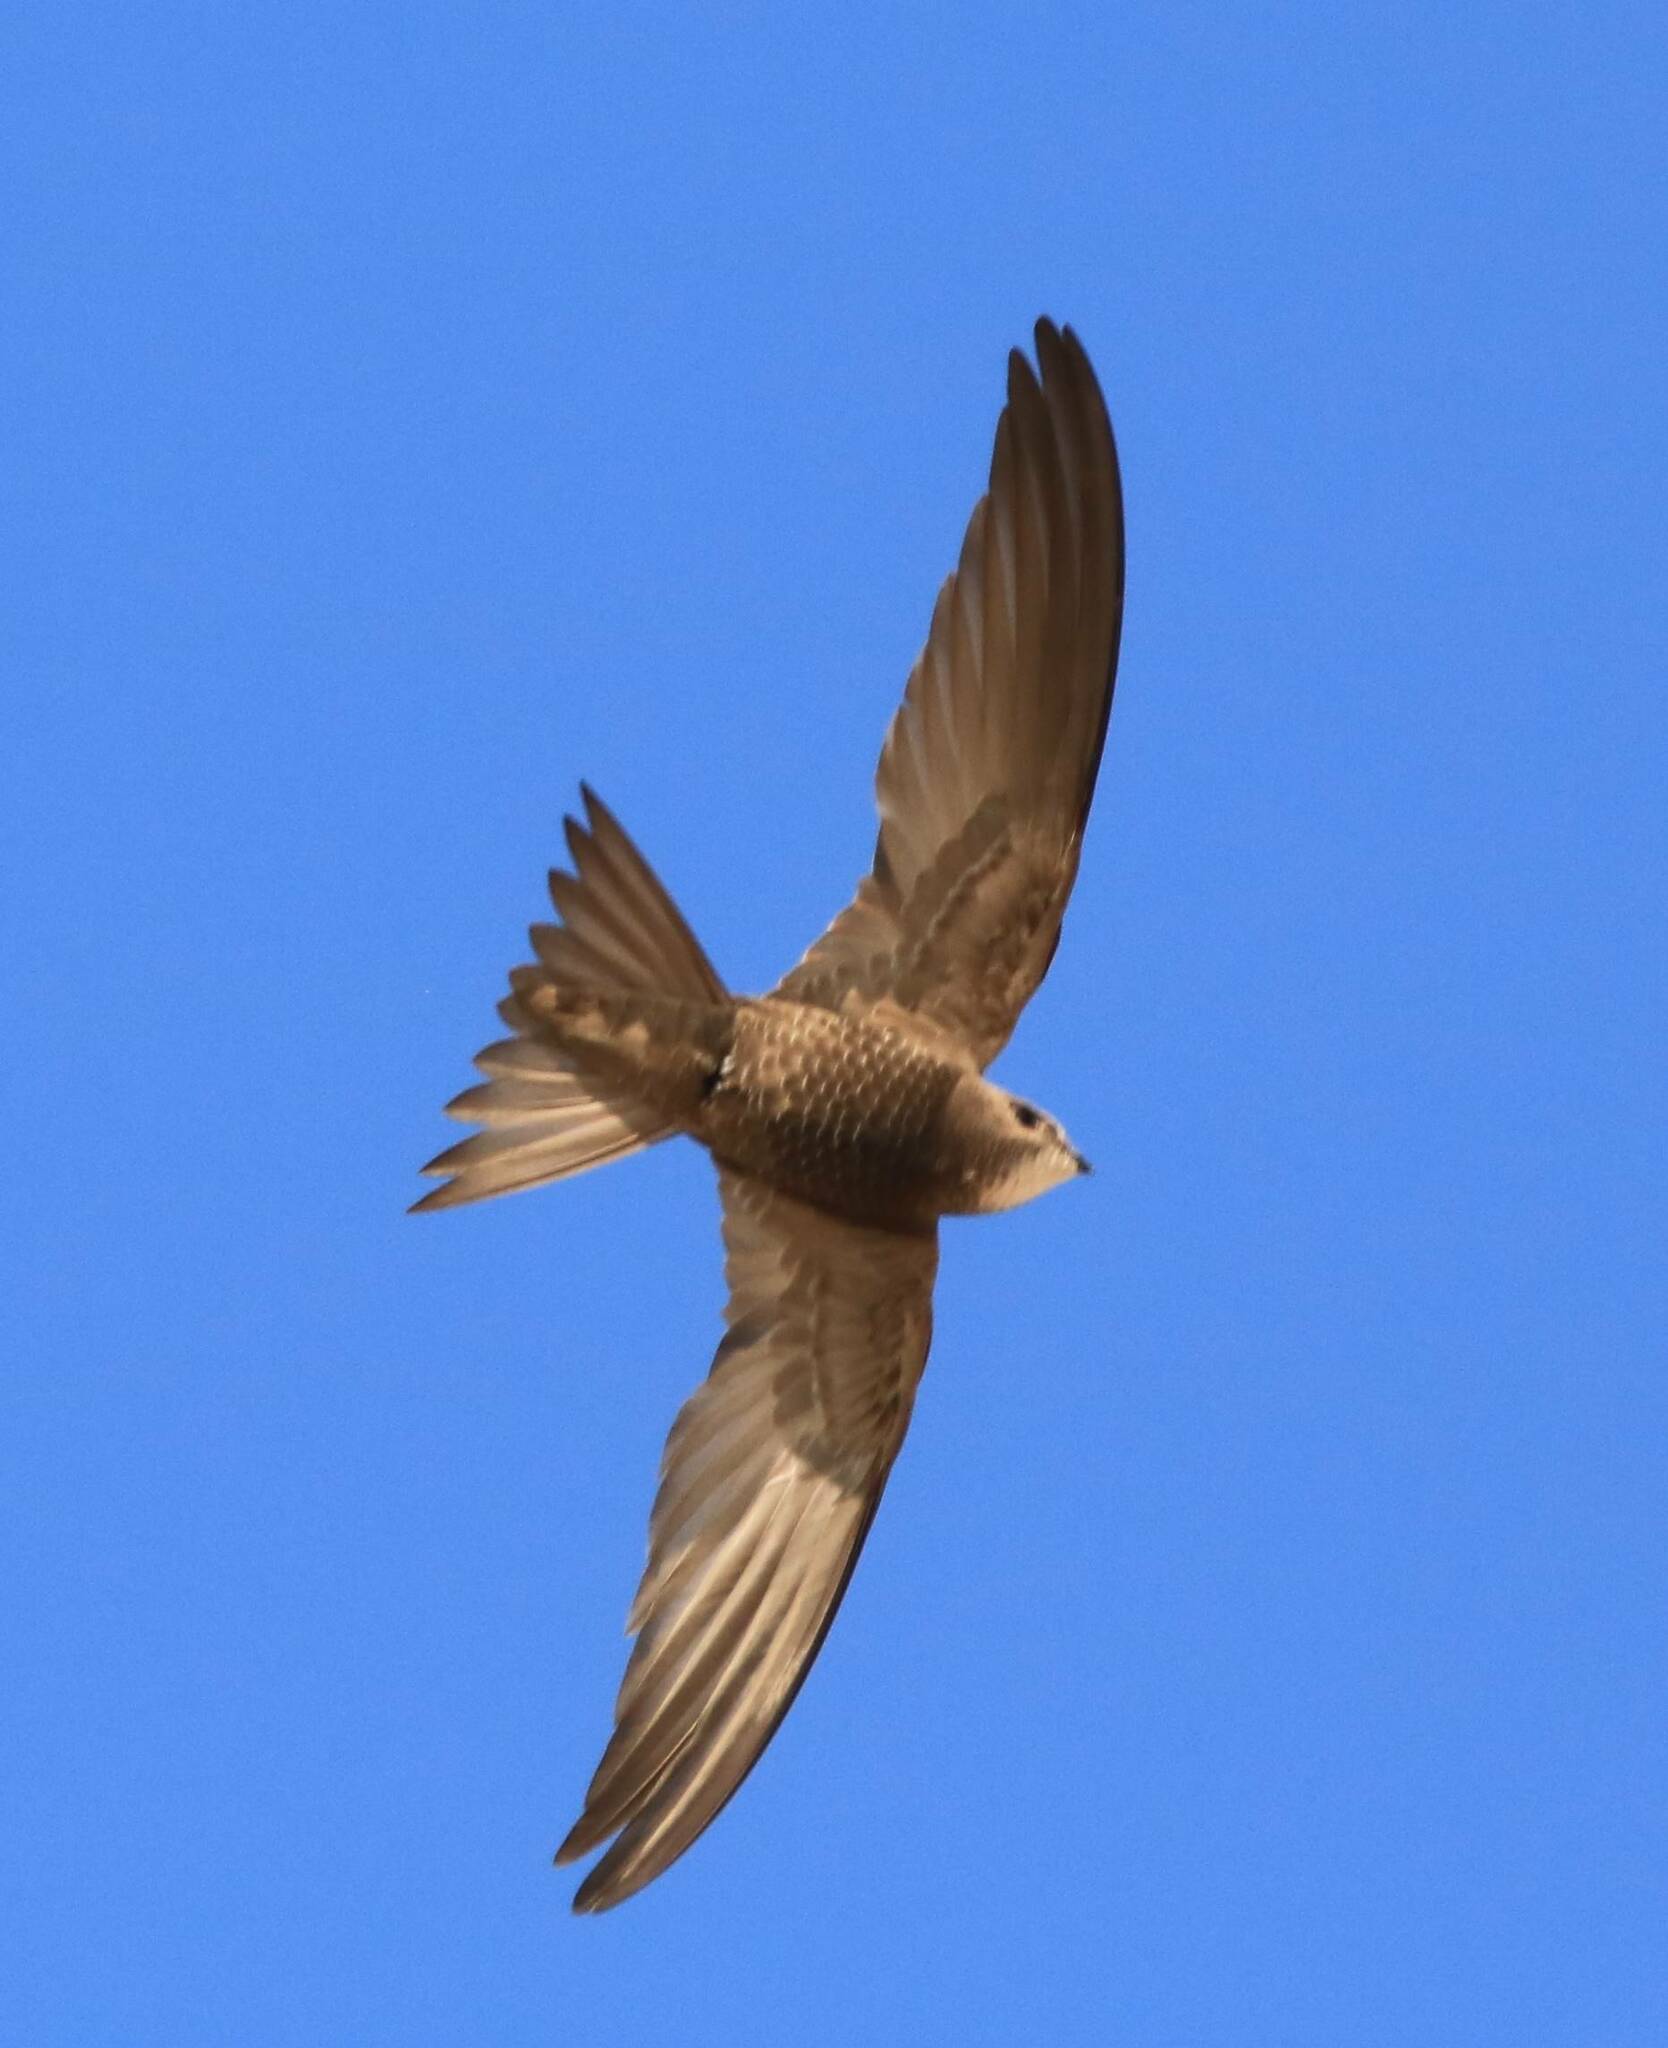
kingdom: Animalia
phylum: Chordata
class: Aves
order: Apodiformes
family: Apodidae
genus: Apus
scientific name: Apus pallidus
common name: Pallid swift
